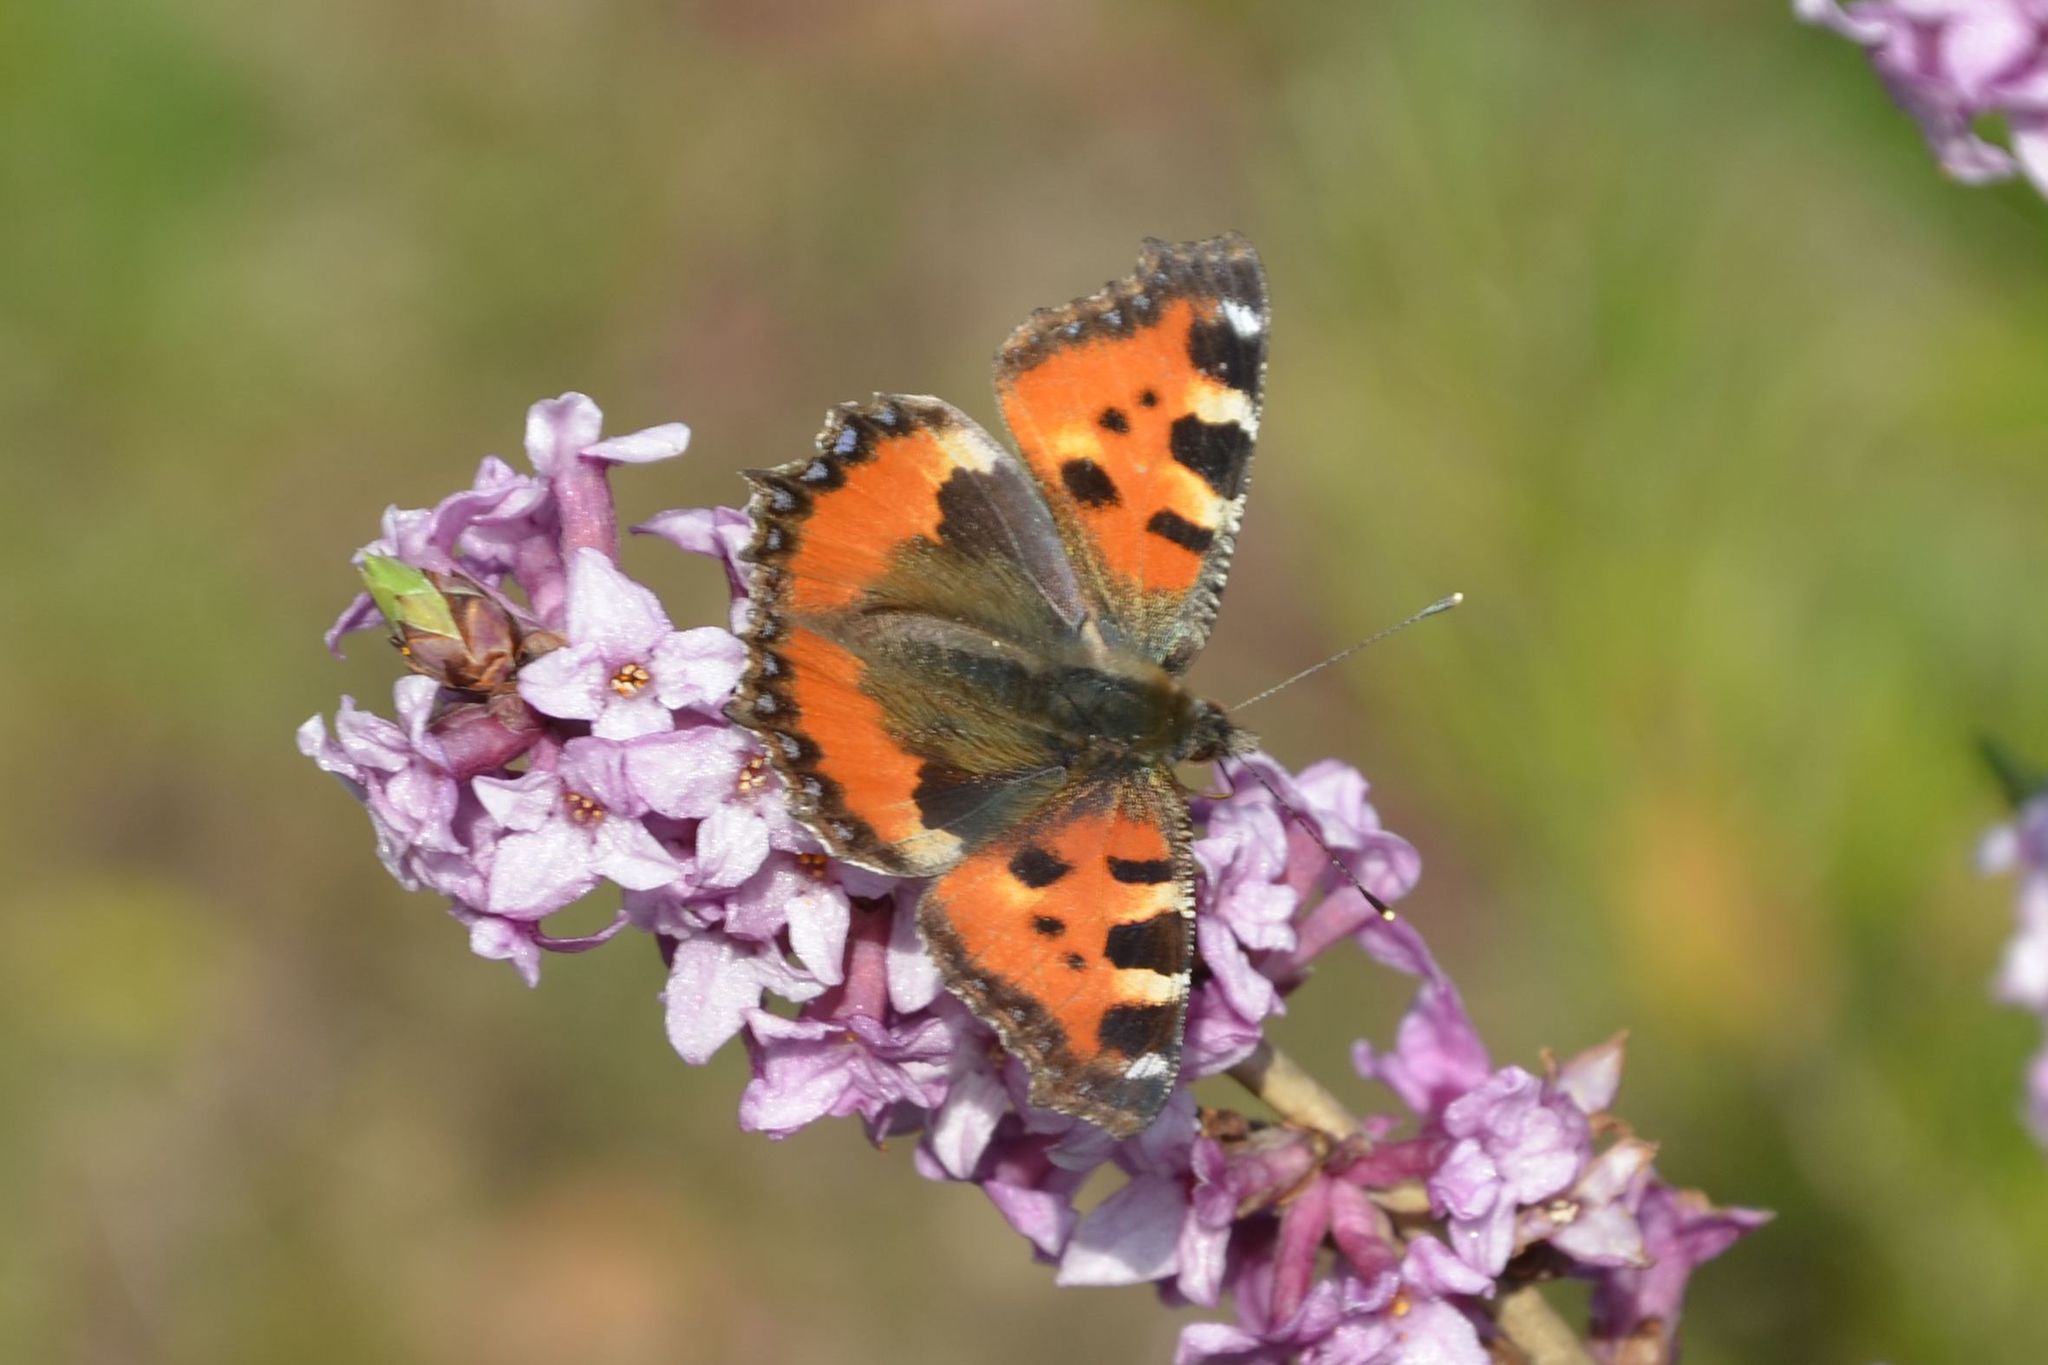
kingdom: Animalia
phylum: Arthropoda
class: Insecta
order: Lepidoptera
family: Nymphalidae
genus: Aglais
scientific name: Aglais urticae
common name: Small tortoiseshell
